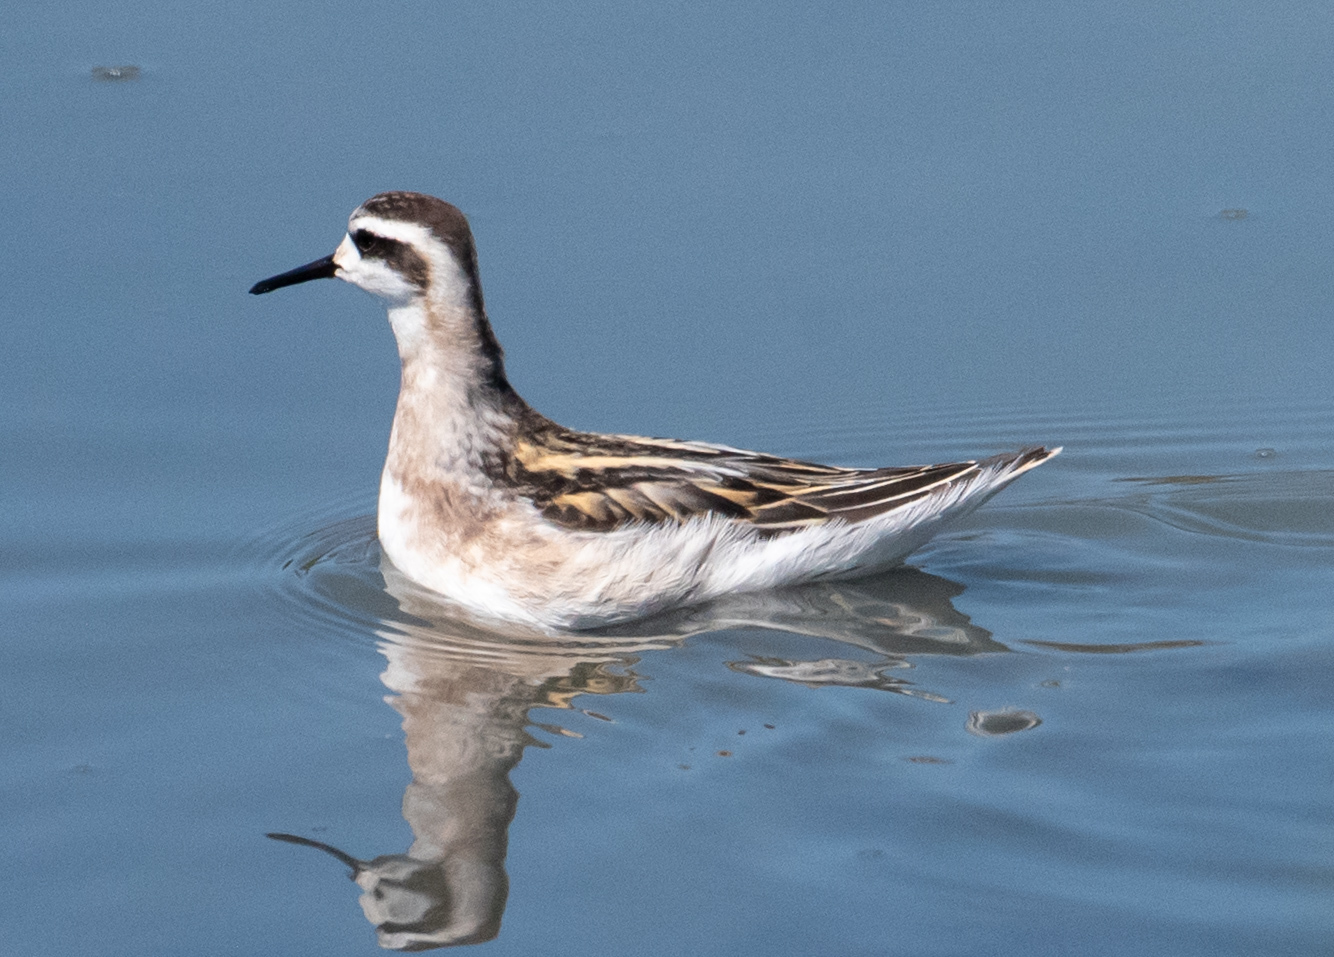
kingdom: Animalia
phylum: Chordata
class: Aves
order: Charadriiformes
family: Scolopacidae
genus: Phalaropus
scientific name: Phalaropus lobatus
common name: Red-necked phalarope
